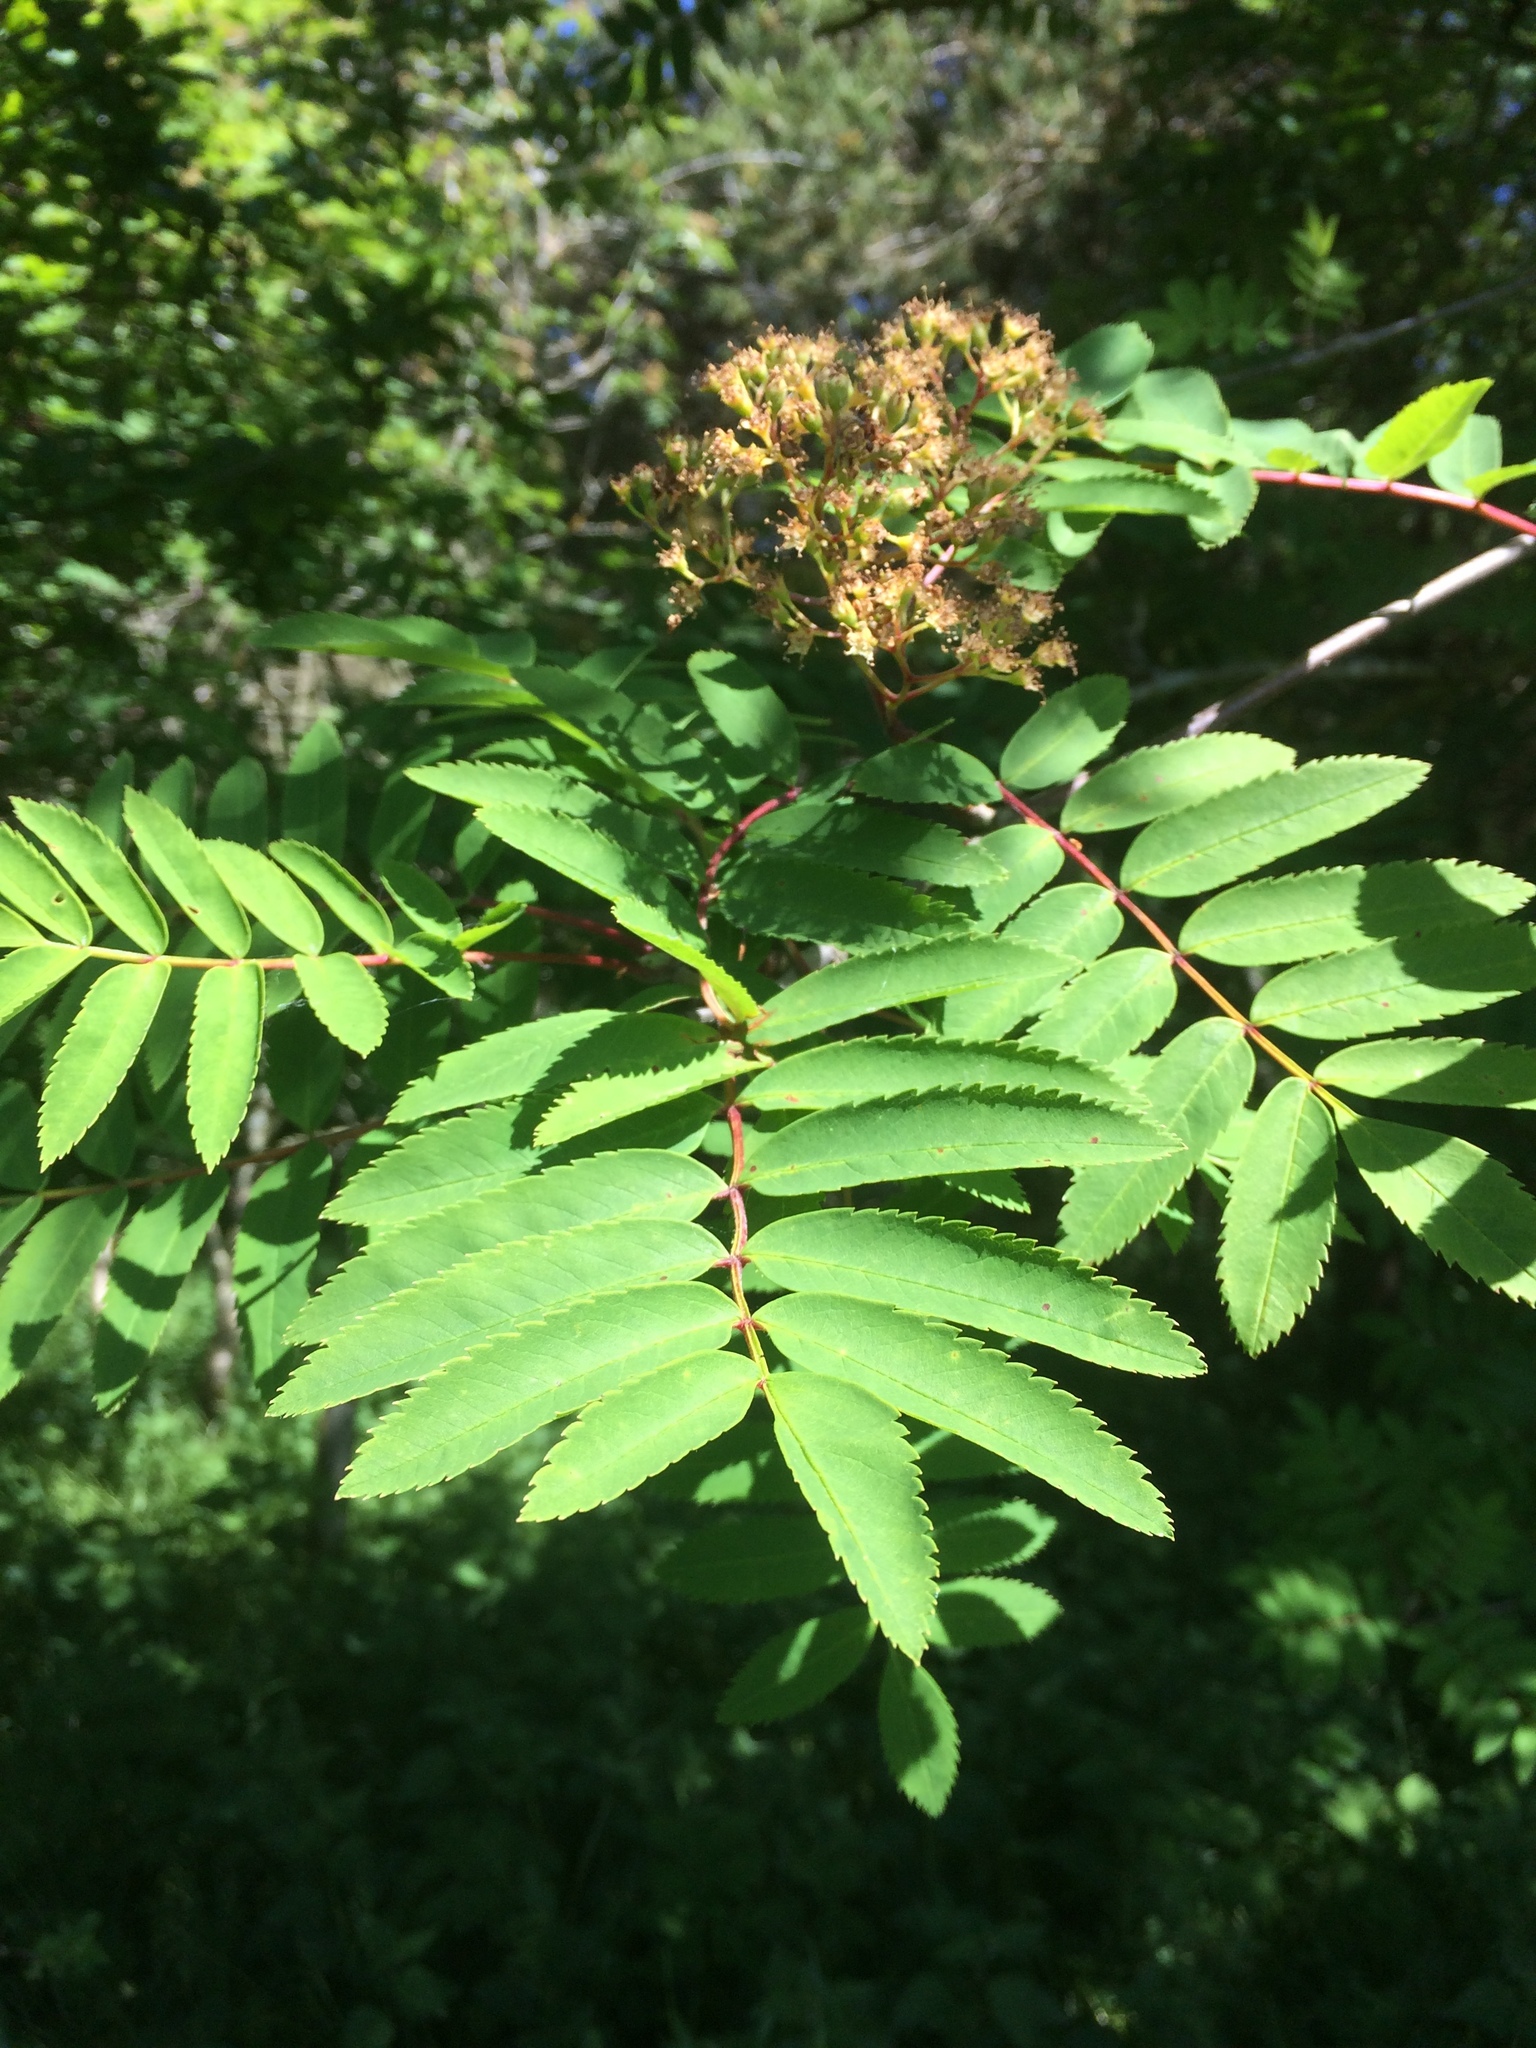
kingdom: Plantae
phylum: Tracheophyta
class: Magnoliopsida
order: Rosales
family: Rosaceae
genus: Sorbus
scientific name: Sorbus aucuparia
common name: Rowan
